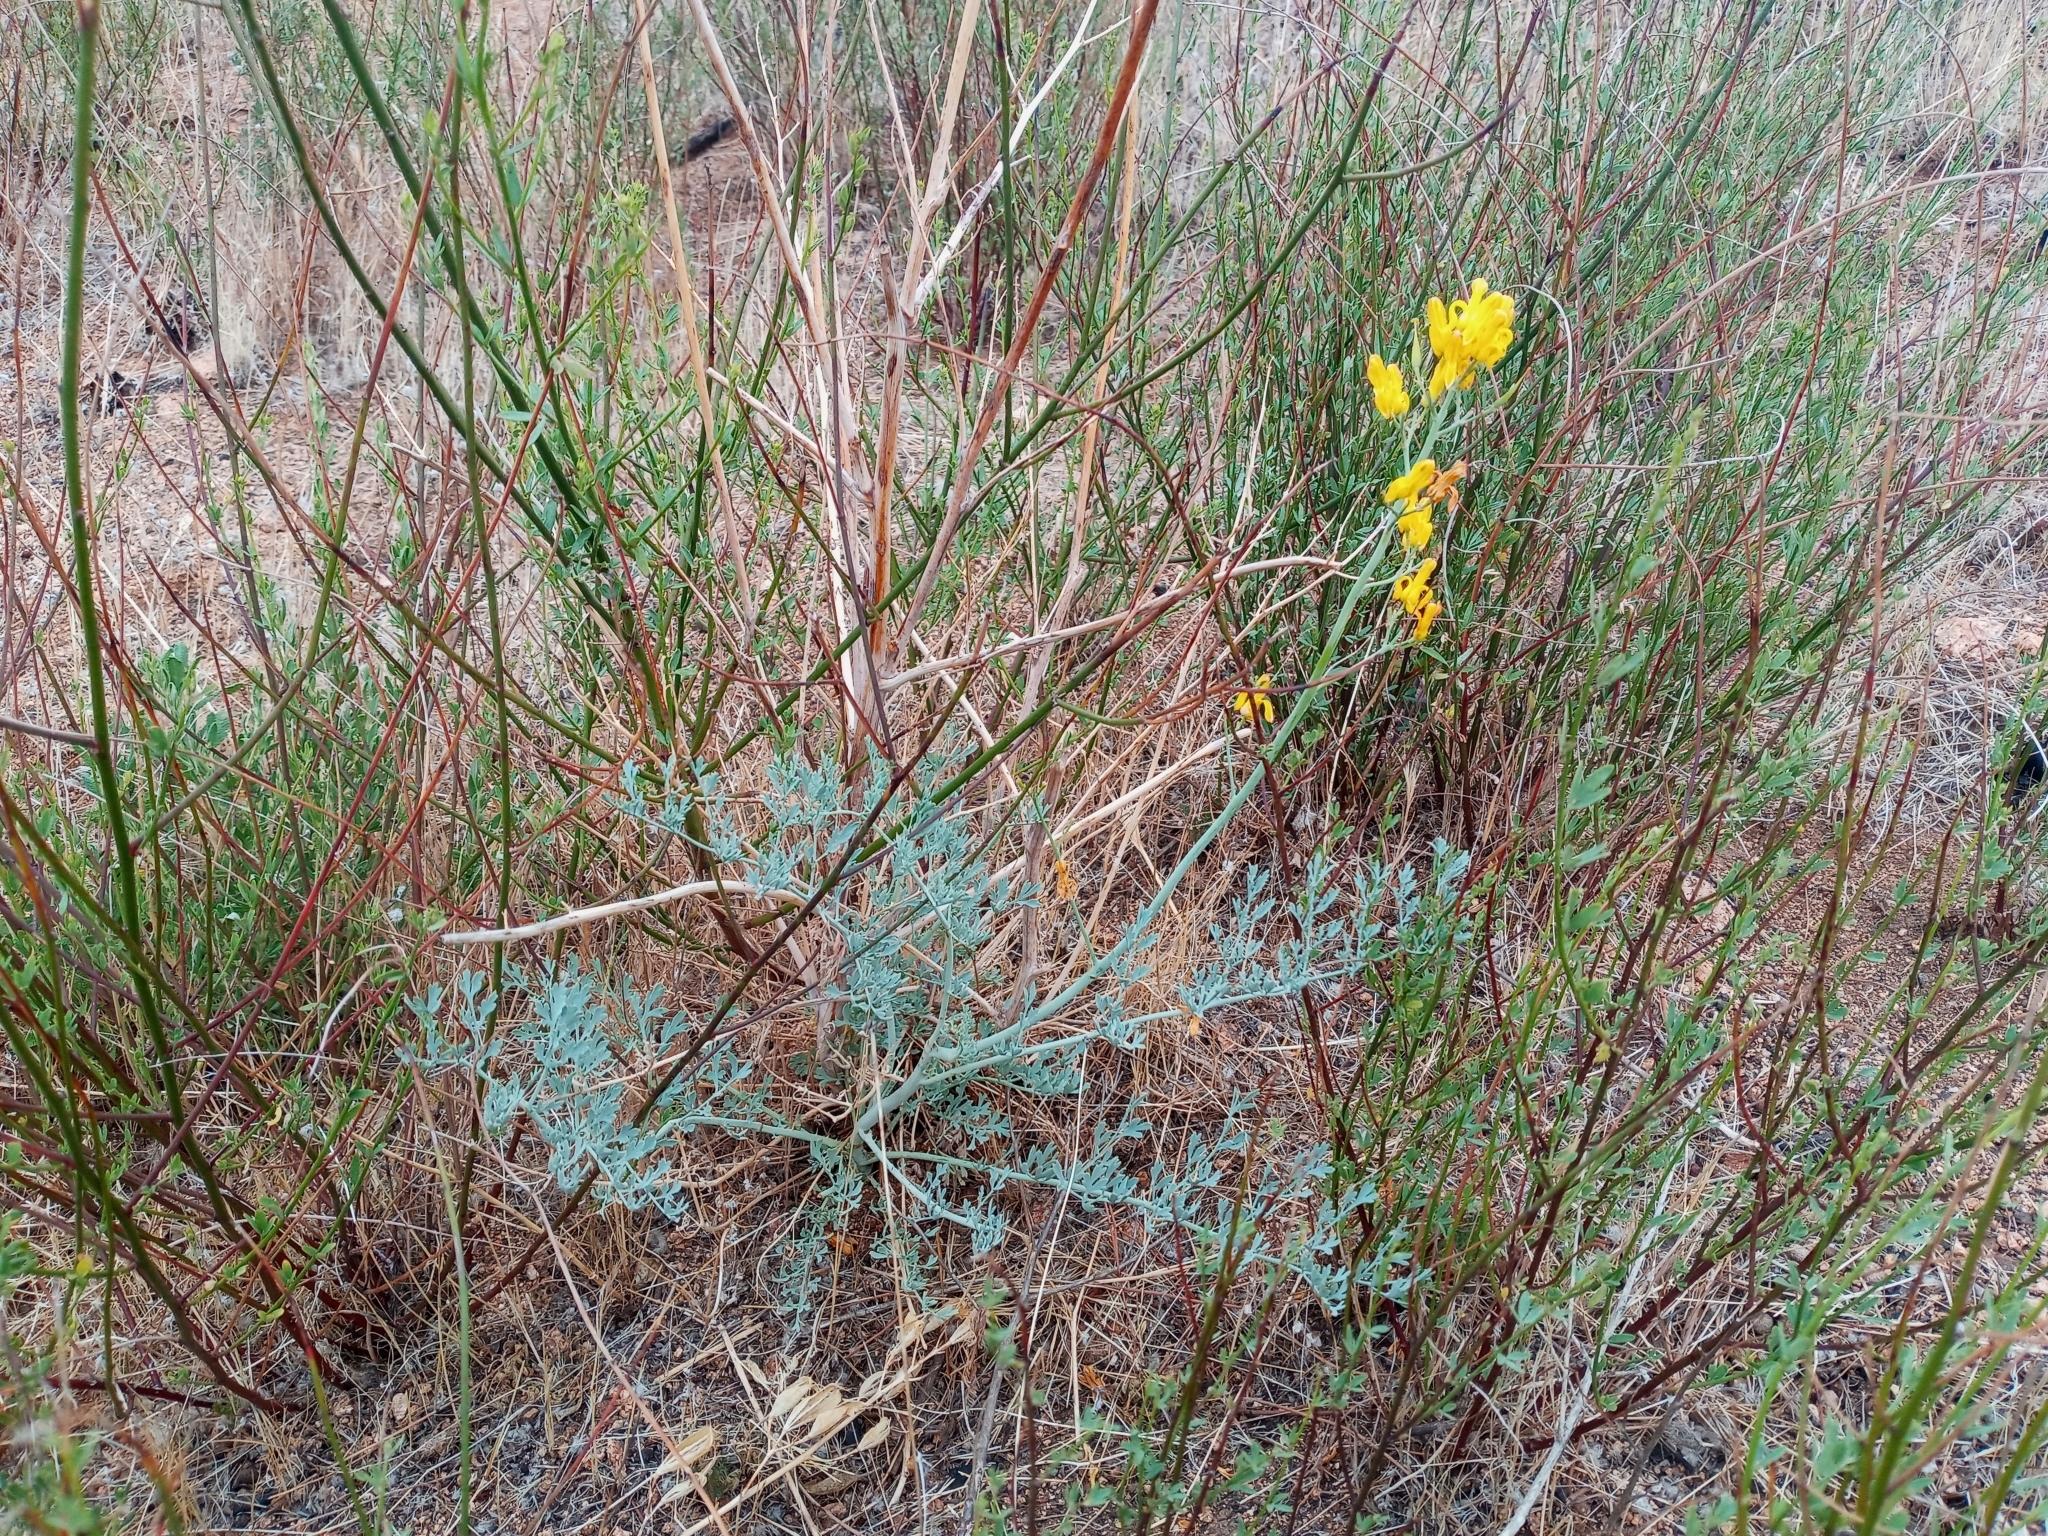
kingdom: Plantae
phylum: Tracheophyta
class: Magnoliopsida
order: Ranunculales
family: Papaveraceae
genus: Ehrendorferia
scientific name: Ehrendorferia chrysantha
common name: Golden eardrops
